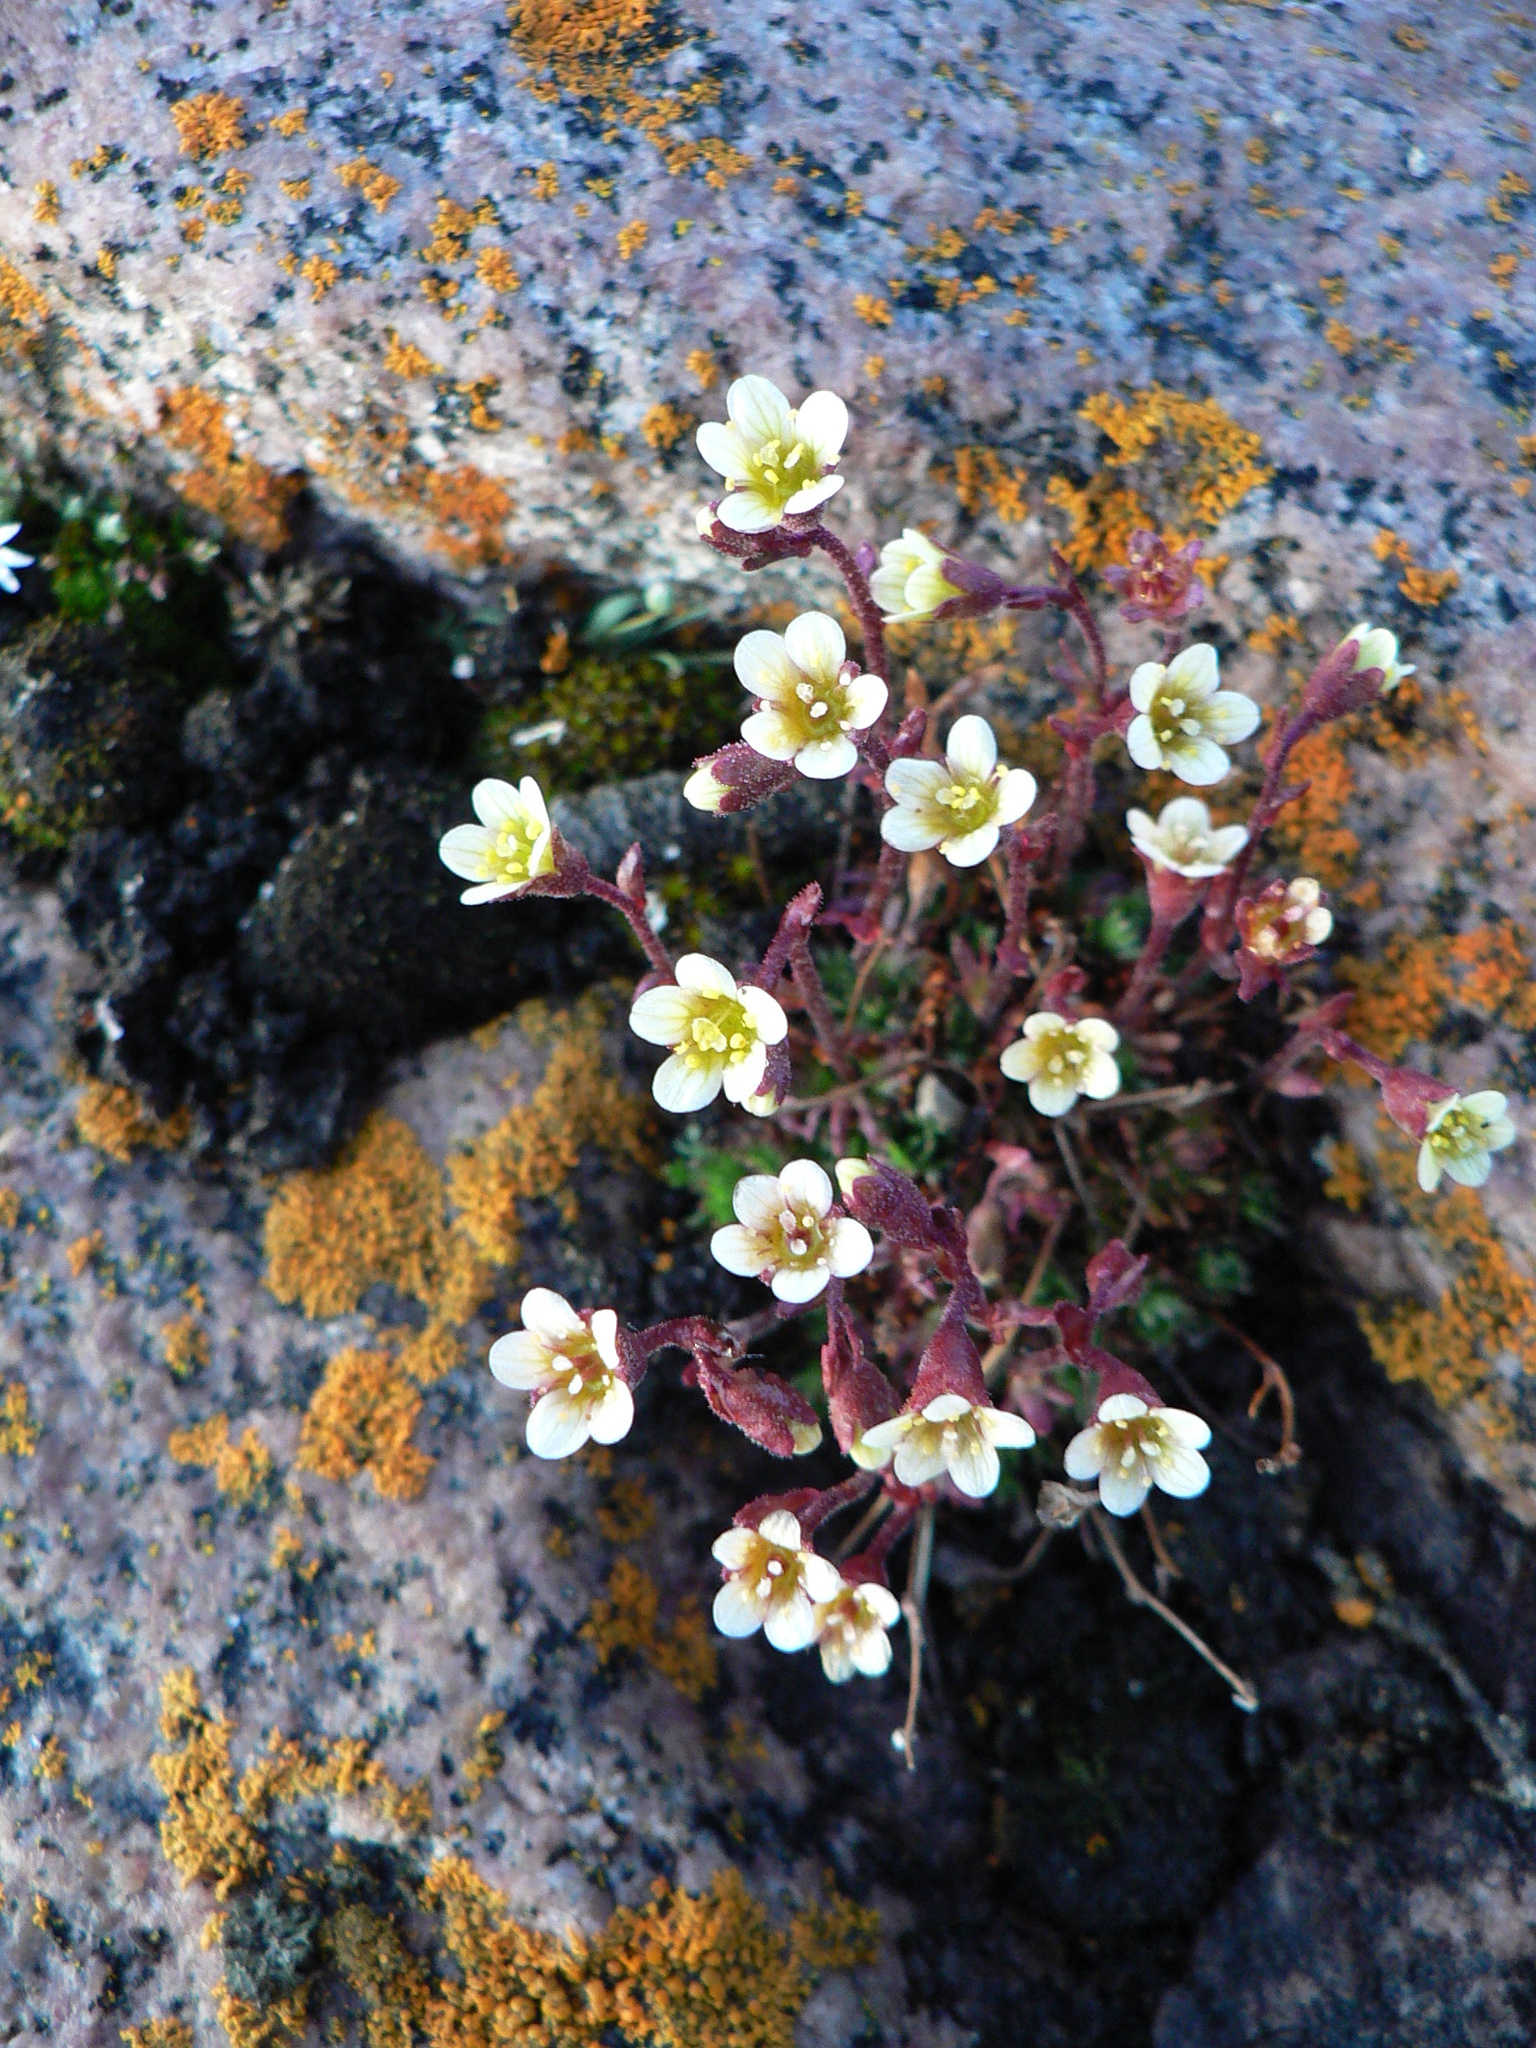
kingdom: Plantae
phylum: Tracheophyta
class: Magnoliopsida
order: Saxifragales
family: Saxifragaceae
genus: Saxifraga
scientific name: Saxifraga cespitosa
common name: Tufted saxifrage
